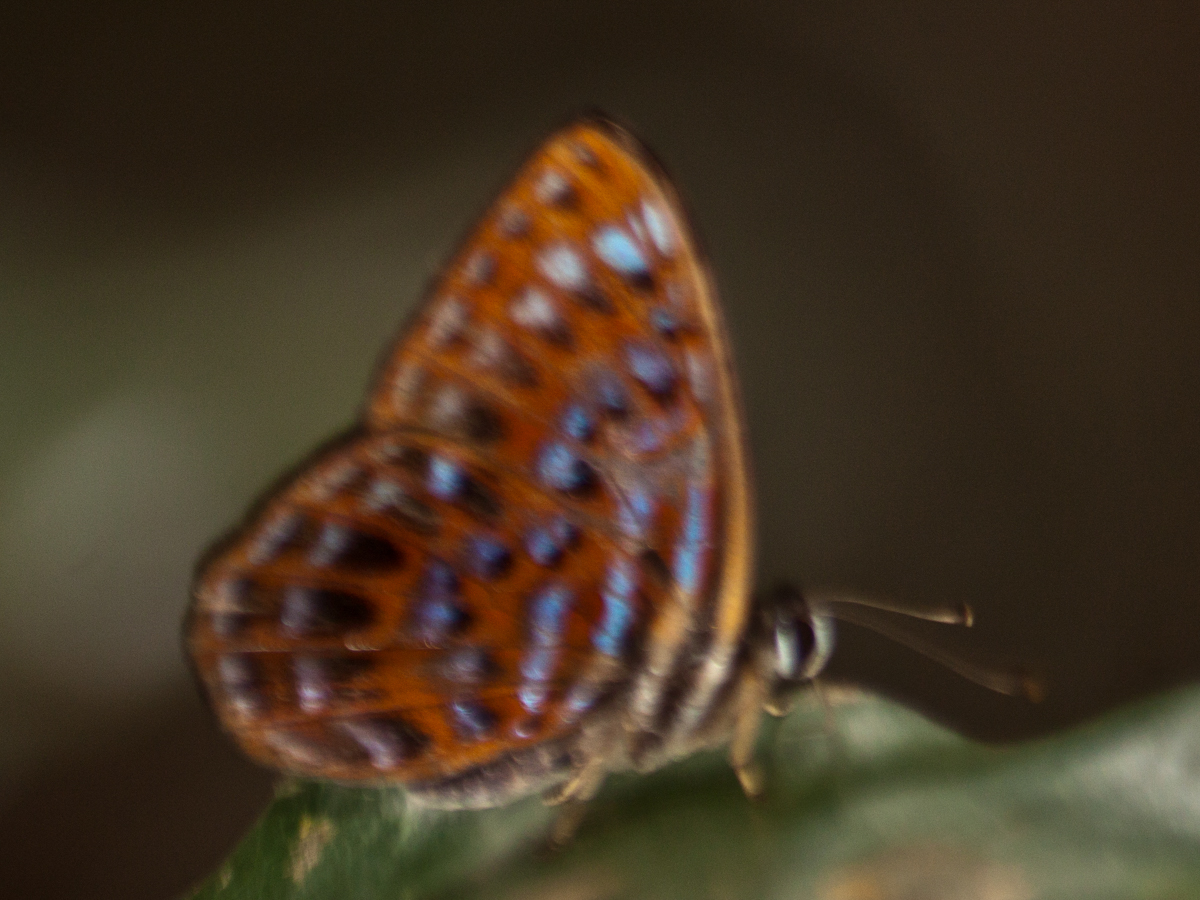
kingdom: Animalia
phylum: Arthropoda
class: Insecta
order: Lepidoptera
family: Riodinidae
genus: Laxita
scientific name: Laxita thuisto
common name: Lesser harlequin
